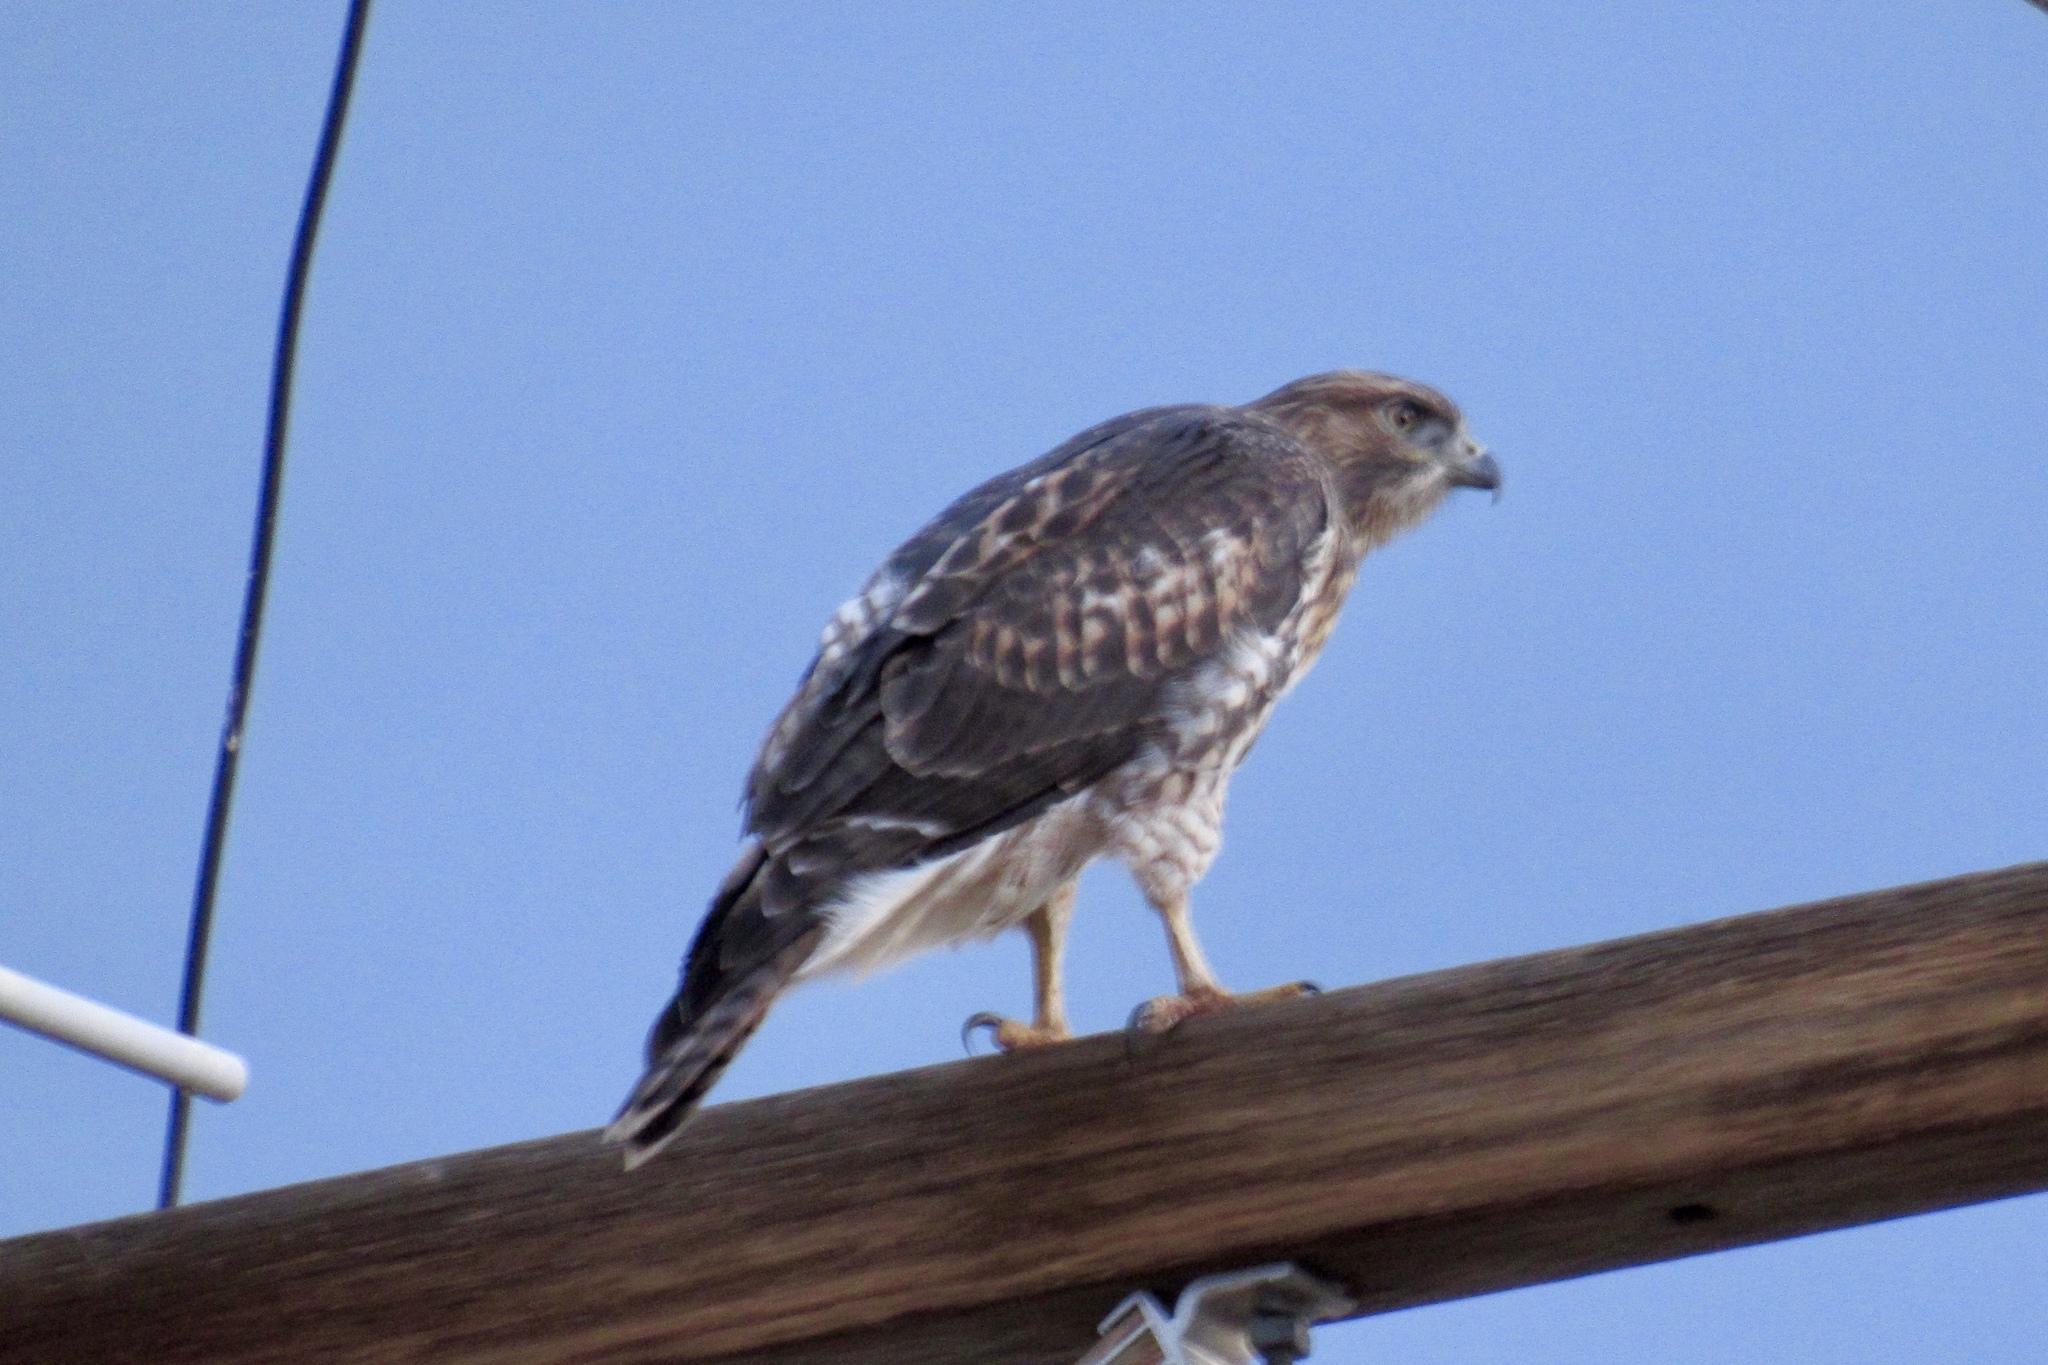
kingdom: Animalia
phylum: Chordata
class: Aves
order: Accipitriformes
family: Accipitridae
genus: Buteo
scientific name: Buteo jamaicensis
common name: Red-tailed hawk
